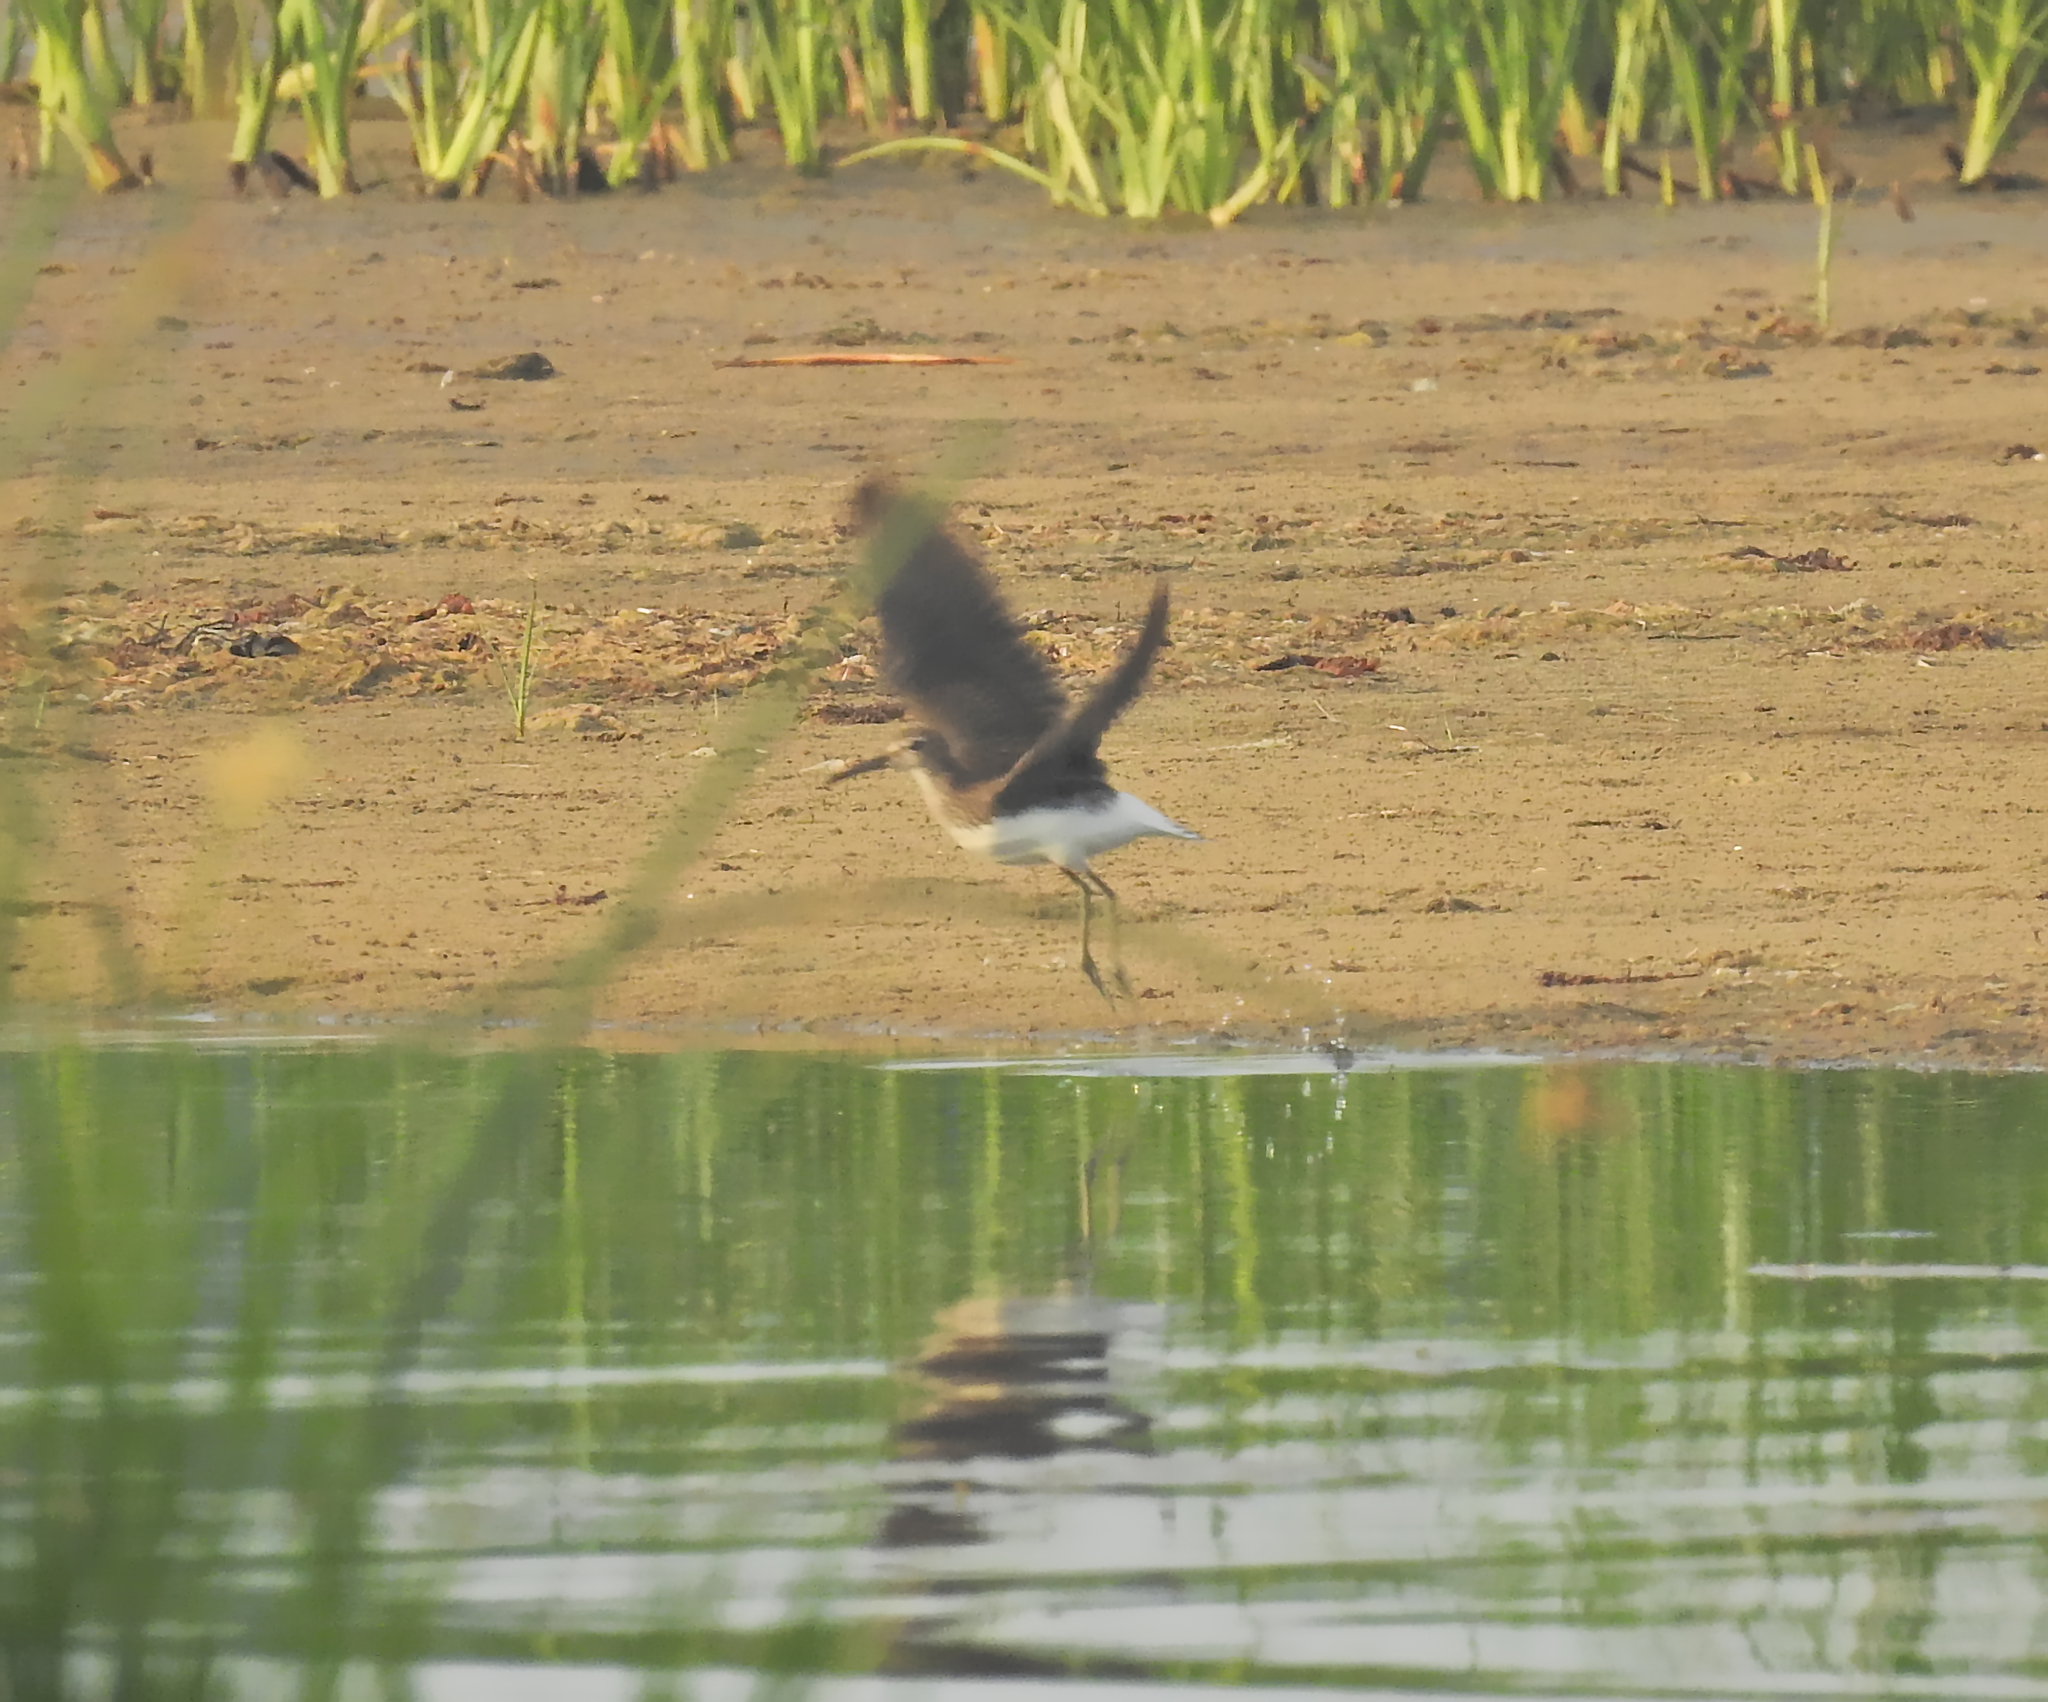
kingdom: Animalia
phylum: Chordata
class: Aves
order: Charadriiformes
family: Scolopacidae
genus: Tringa
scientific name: Tringa ochropus
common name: Green sandpiper
